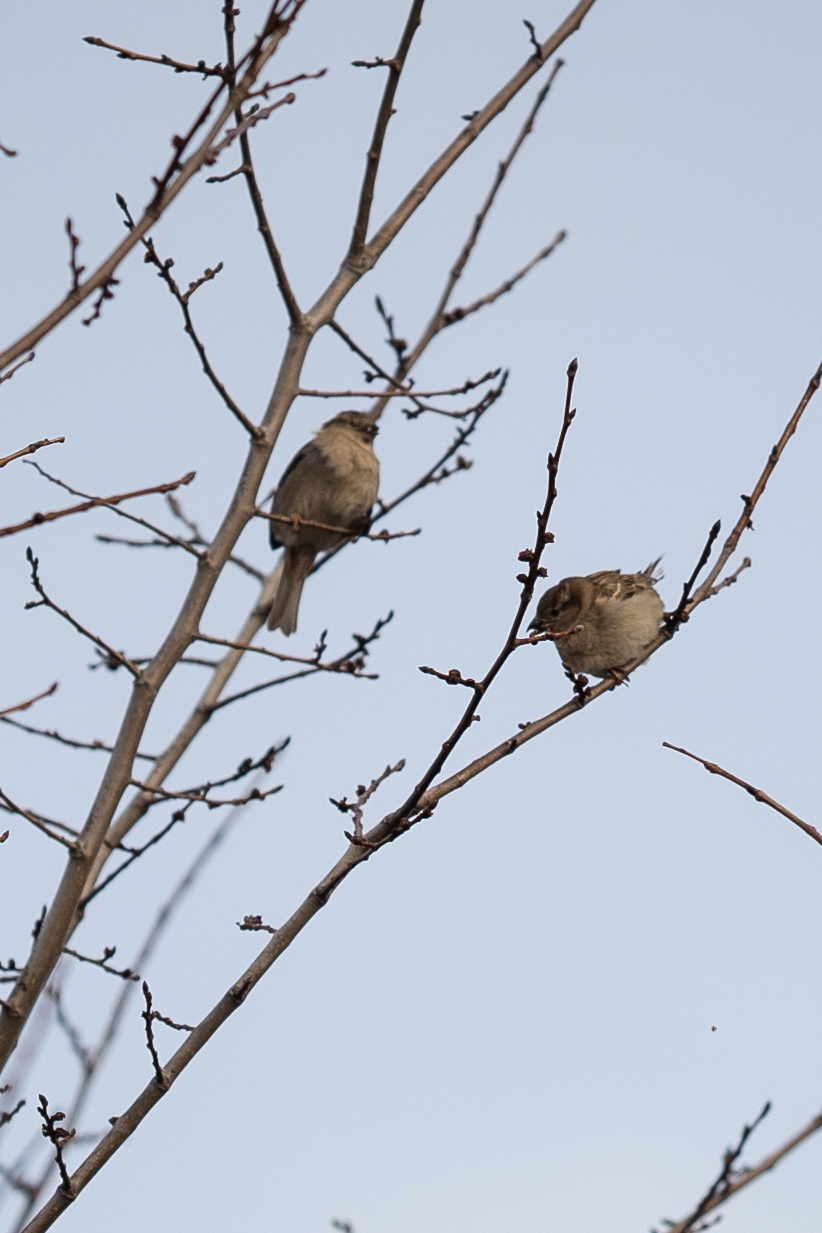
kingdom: Animalia
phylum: Chordata
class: Aves
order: Passeriformes
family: Passeridae
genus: Passer
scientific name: Passer domesticus
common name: House sparrow
